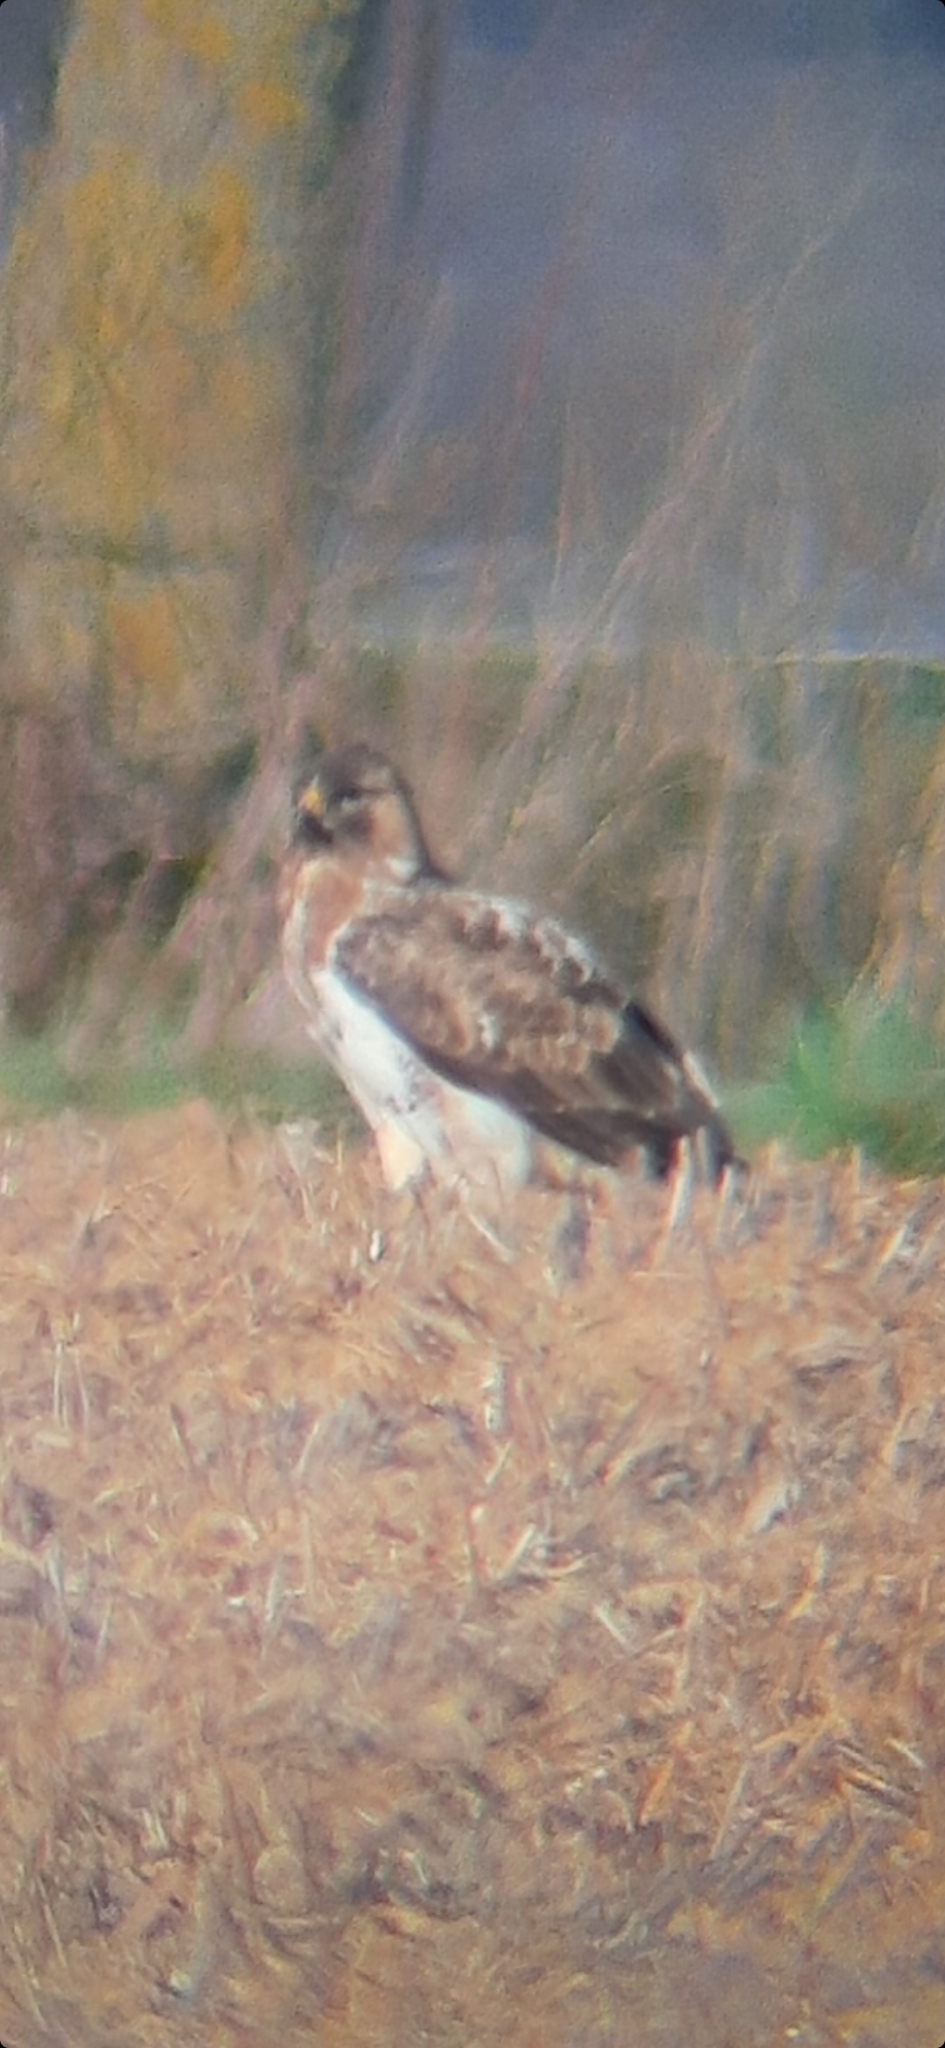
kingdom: Animalia
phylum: Chordata
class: Aves
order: Accipitriformes
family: Accipitridae
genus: Buteo
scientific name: Buteo buteo
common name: Common buzzard
